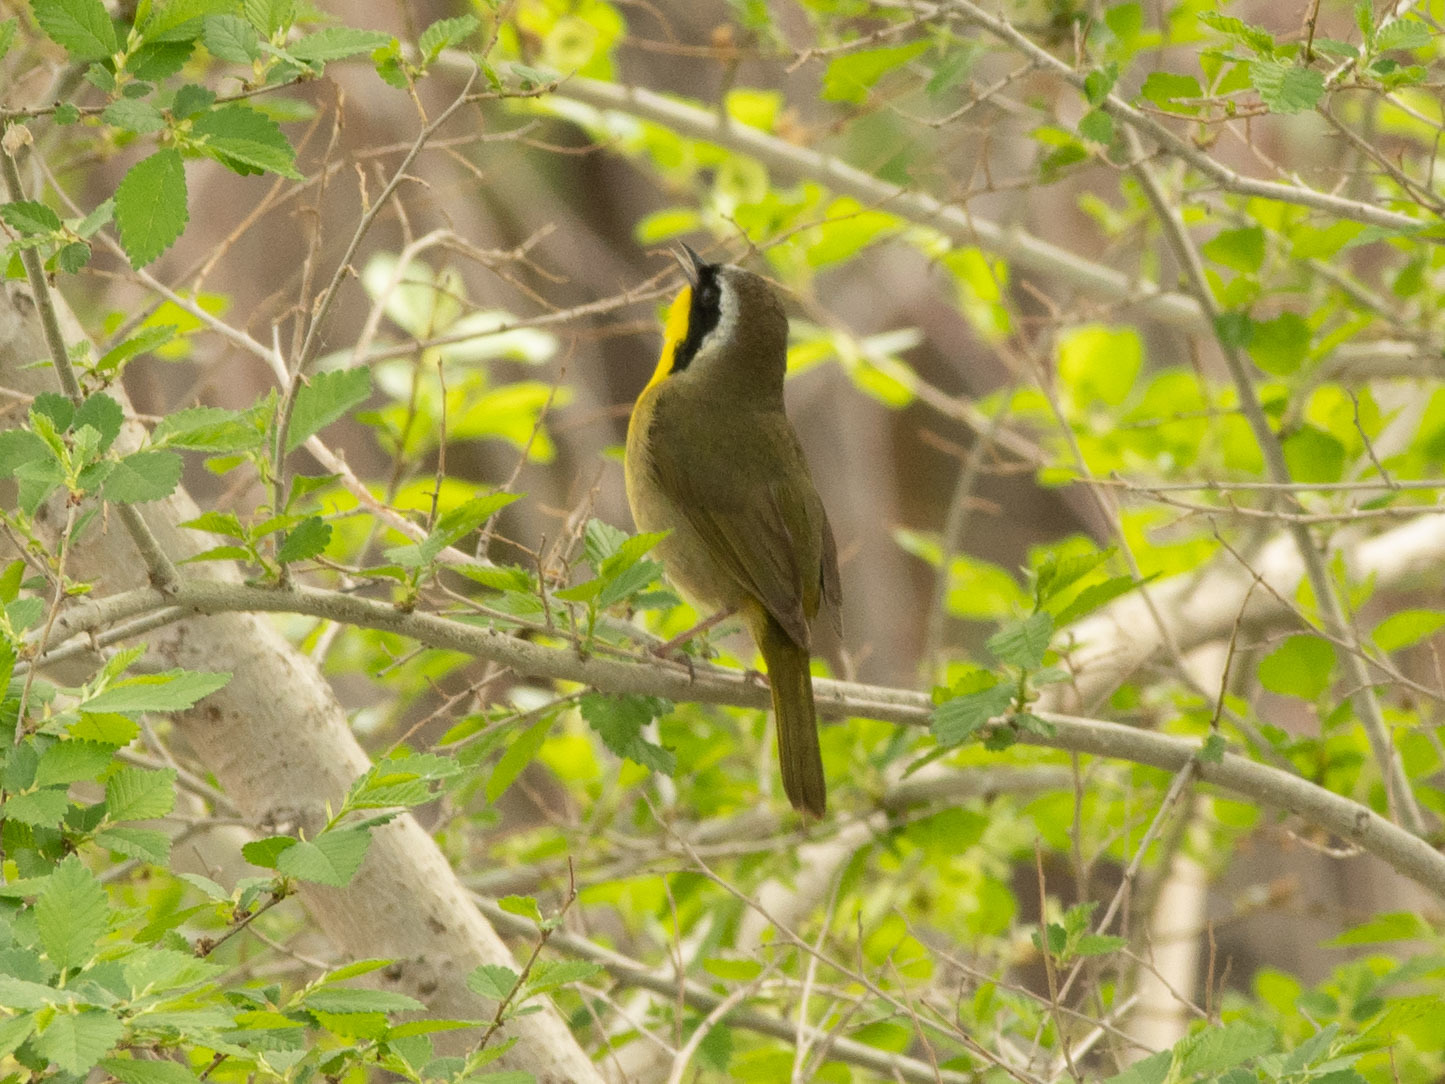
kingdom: Animalia
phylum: Chordata
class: Aves
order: Passeriformes
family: Parulidae
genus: Geothlypis
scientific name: Geothlypis trichas
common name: Common yellowthroat
